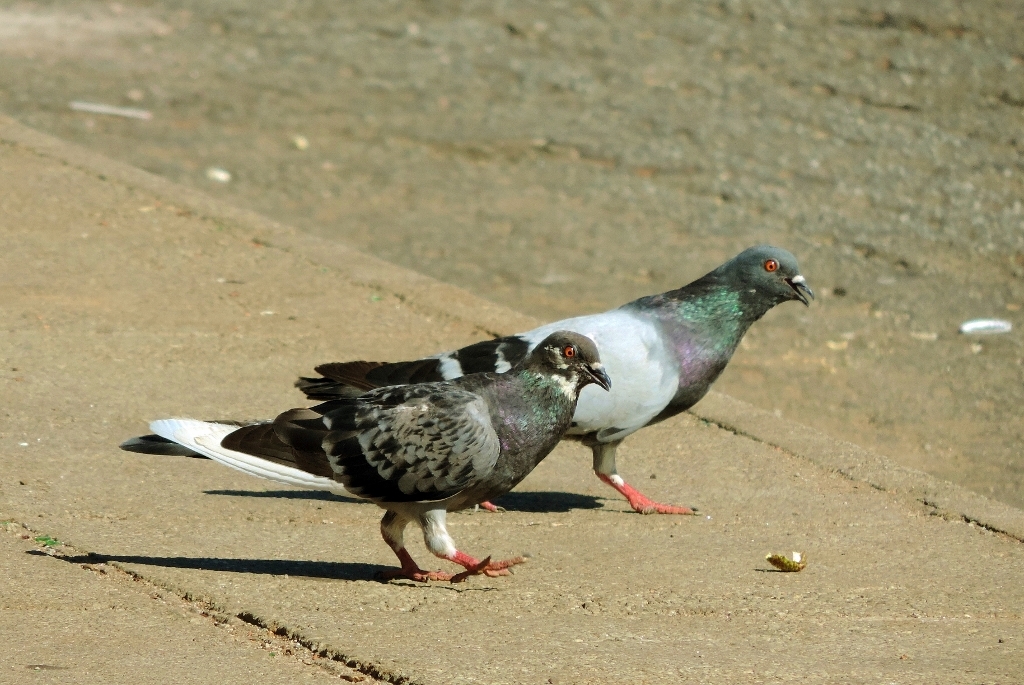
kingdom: Animalia
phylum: Chordata
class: Aves
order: Columbiformes
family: Columbidae
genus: Columba
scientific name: Columba livia
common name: Rock pigeon
